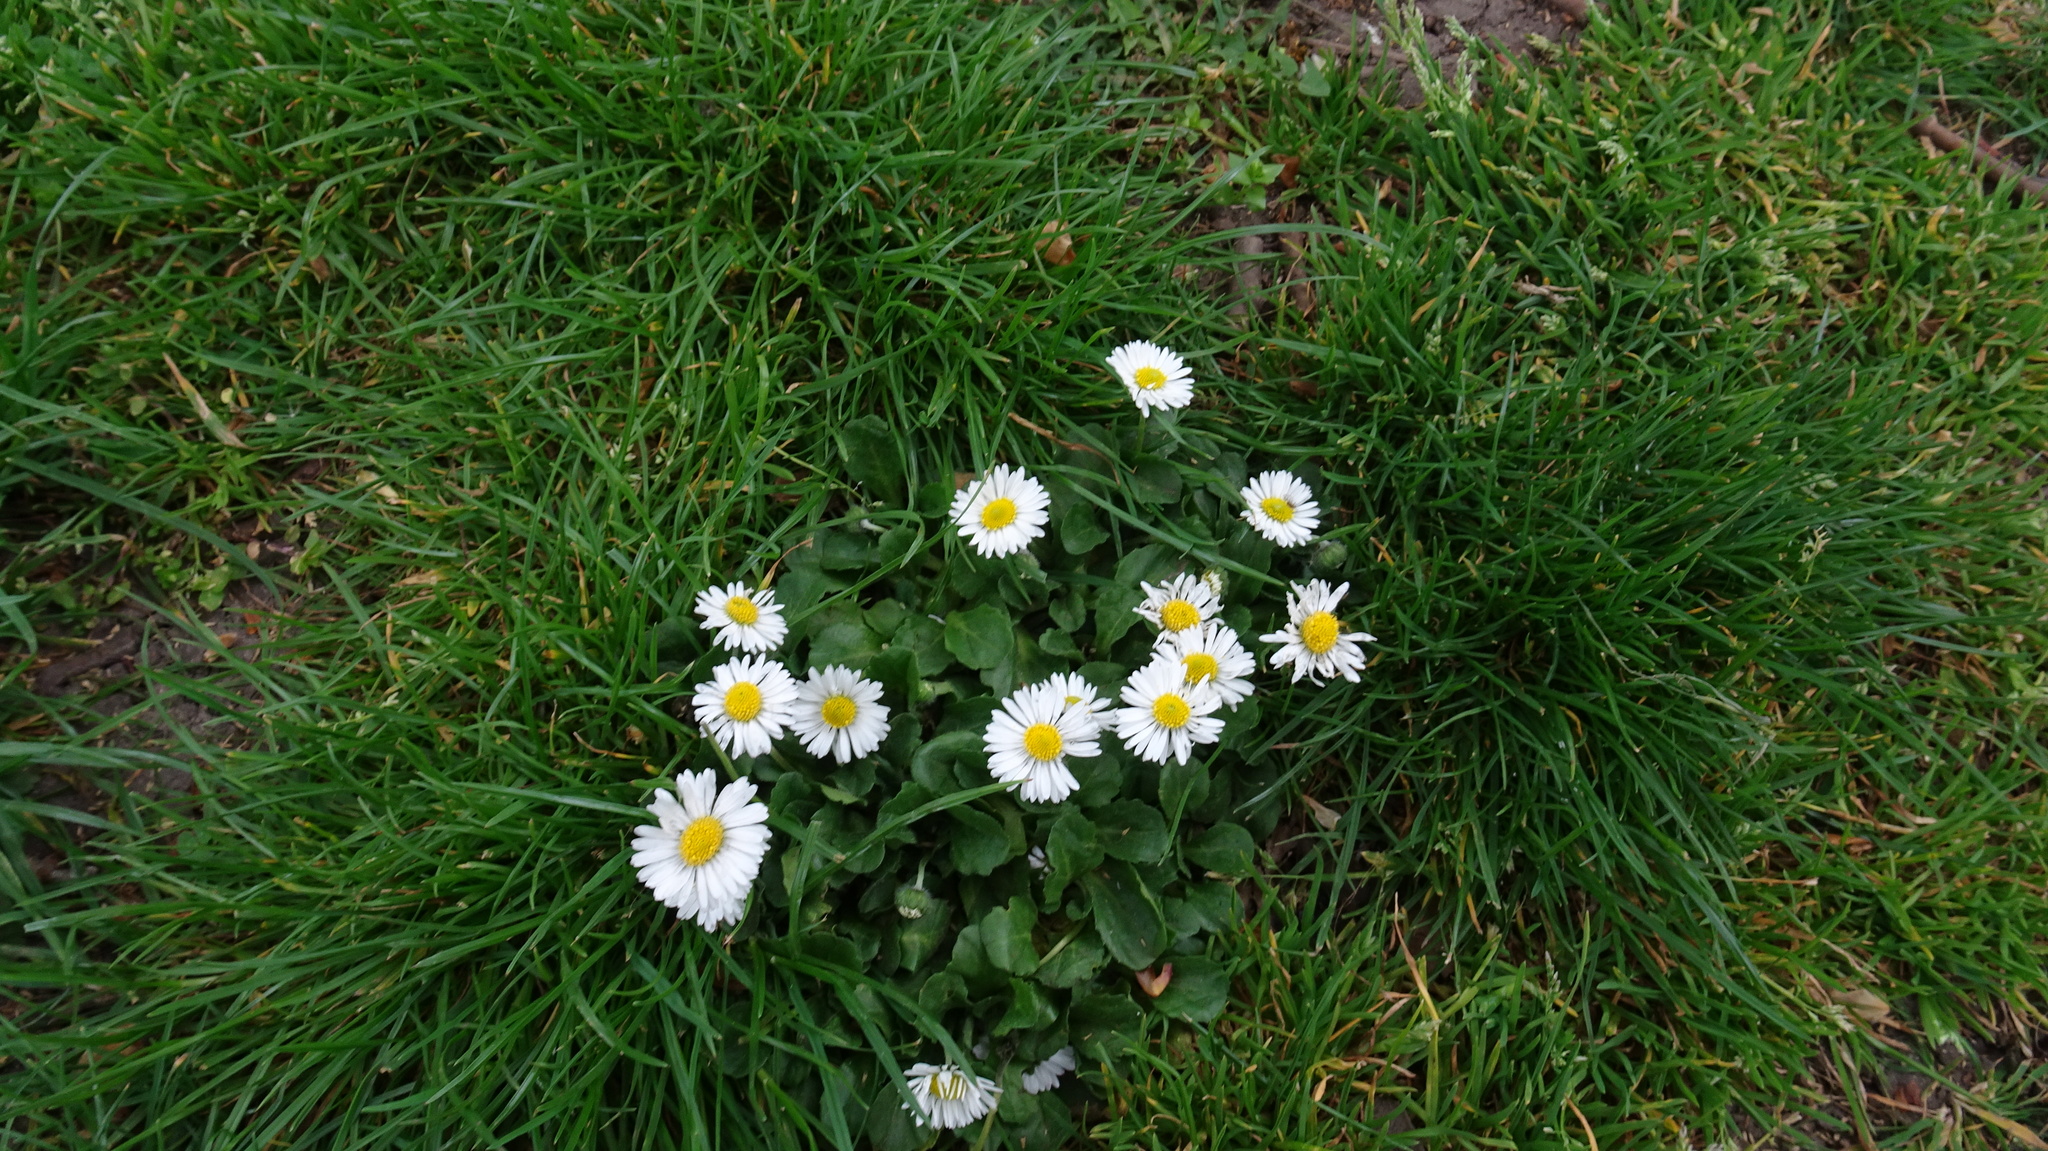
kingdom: Plantae
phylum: Tracheophyta
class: Magnoliopsida
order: Asterales
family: Asteraceae
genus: Bellis
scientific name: Bellis perennis
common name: Lawndaisy
